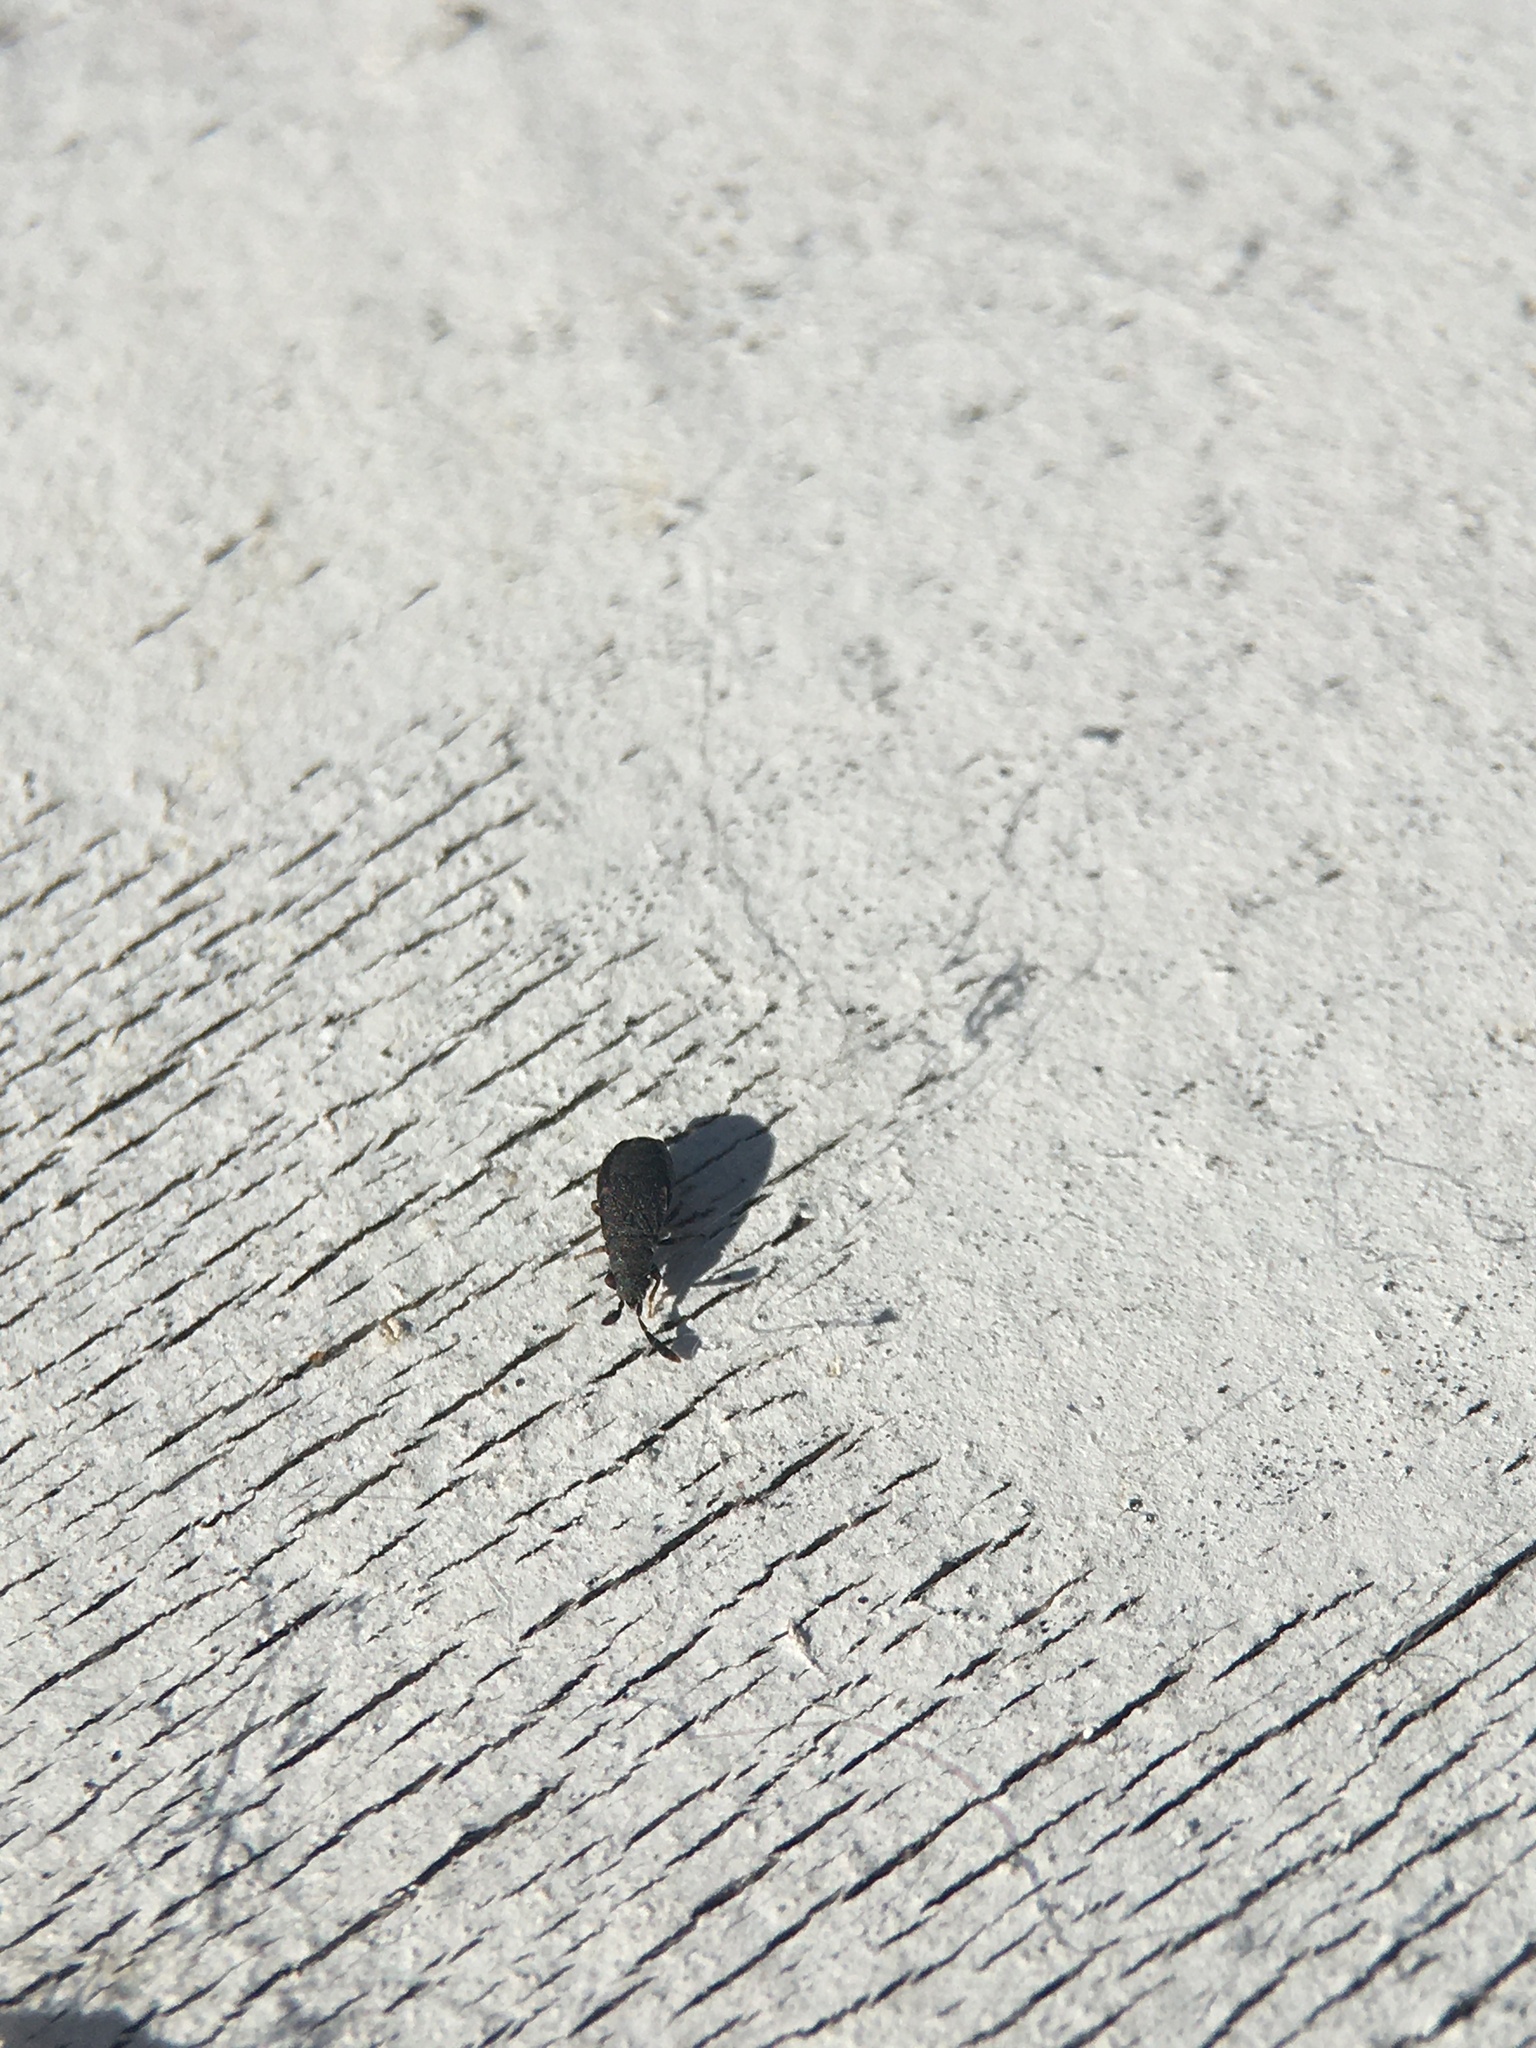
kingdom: Animalia
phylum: Arthropoda
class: Insecta
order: Hemiptera
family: Rhyparochromidae
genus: Sisamnes
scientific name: Sisamnes claviger
